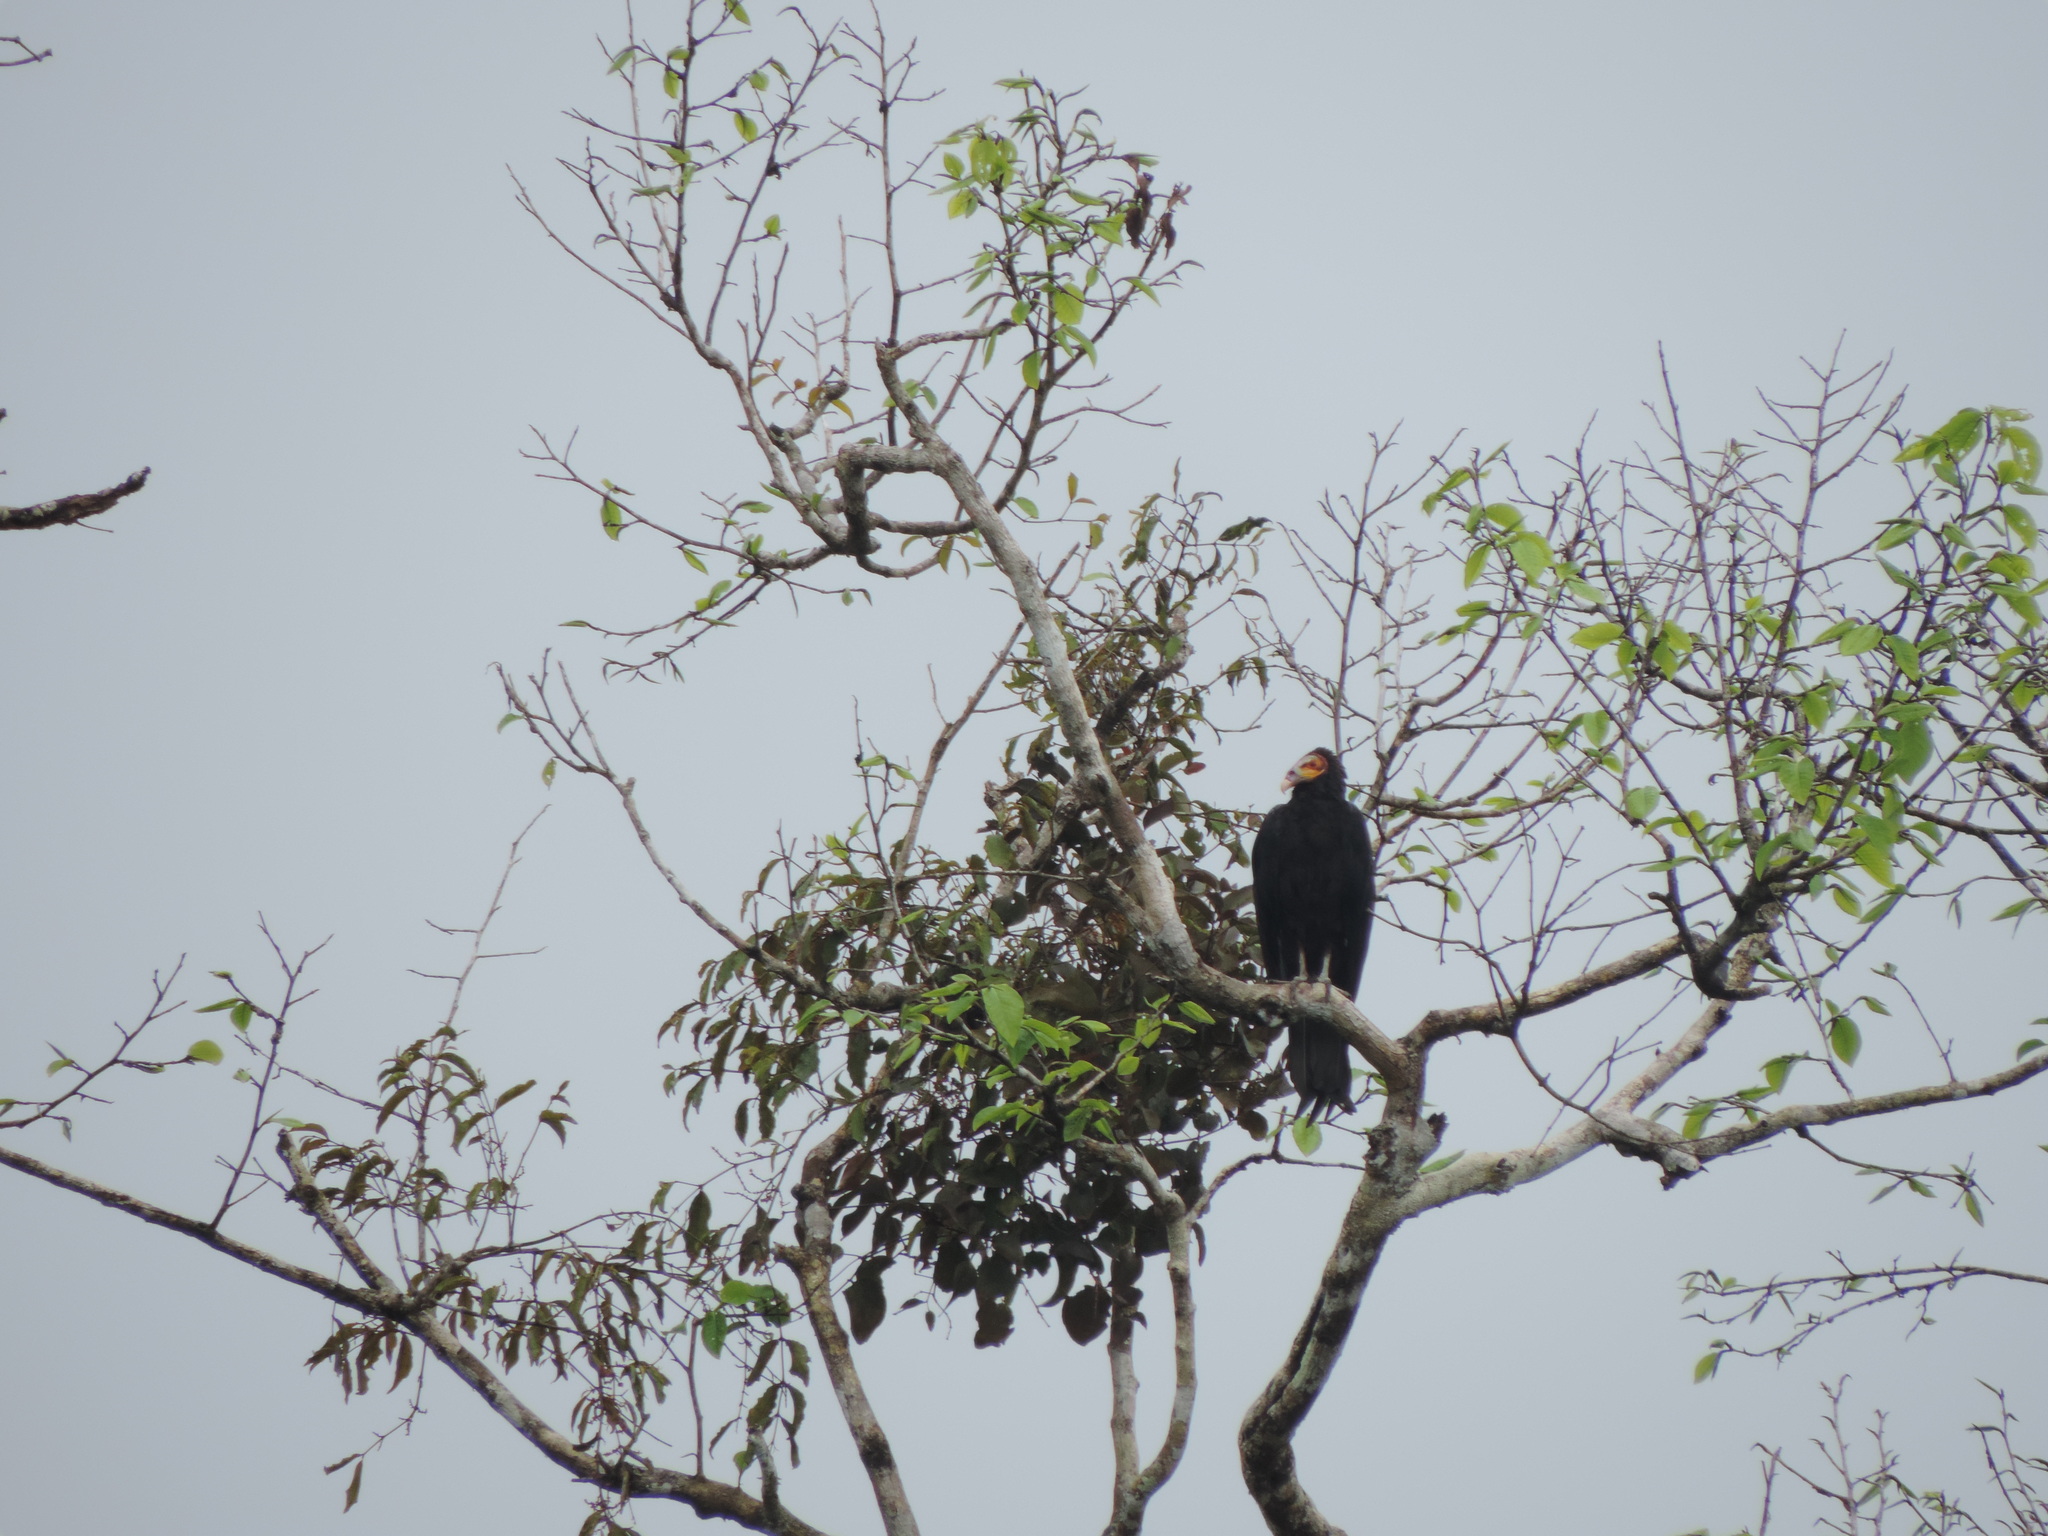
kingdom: Animalia
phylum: Chordata
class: Aves
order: Accipitriformes
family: Cathartidae
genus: Cathartes
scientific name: Cathartes burrovianus
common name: Lesser yellow-headed vulture
